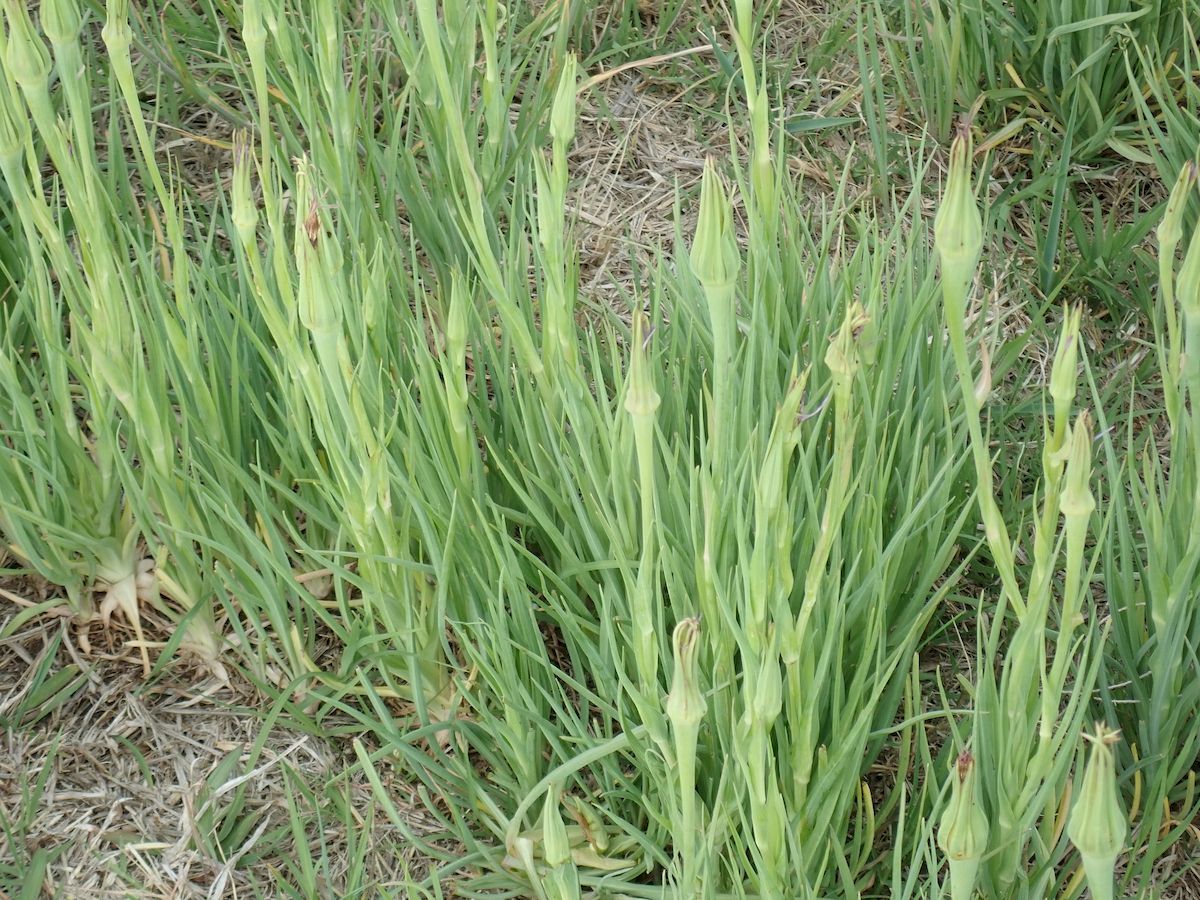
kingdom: Plantae
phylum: Tracheophyta
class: Magnoliopsida
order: Asterales
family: Asteraceae
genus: Tragopogon
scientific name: Tragopogon porrifolius
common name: Salsify
